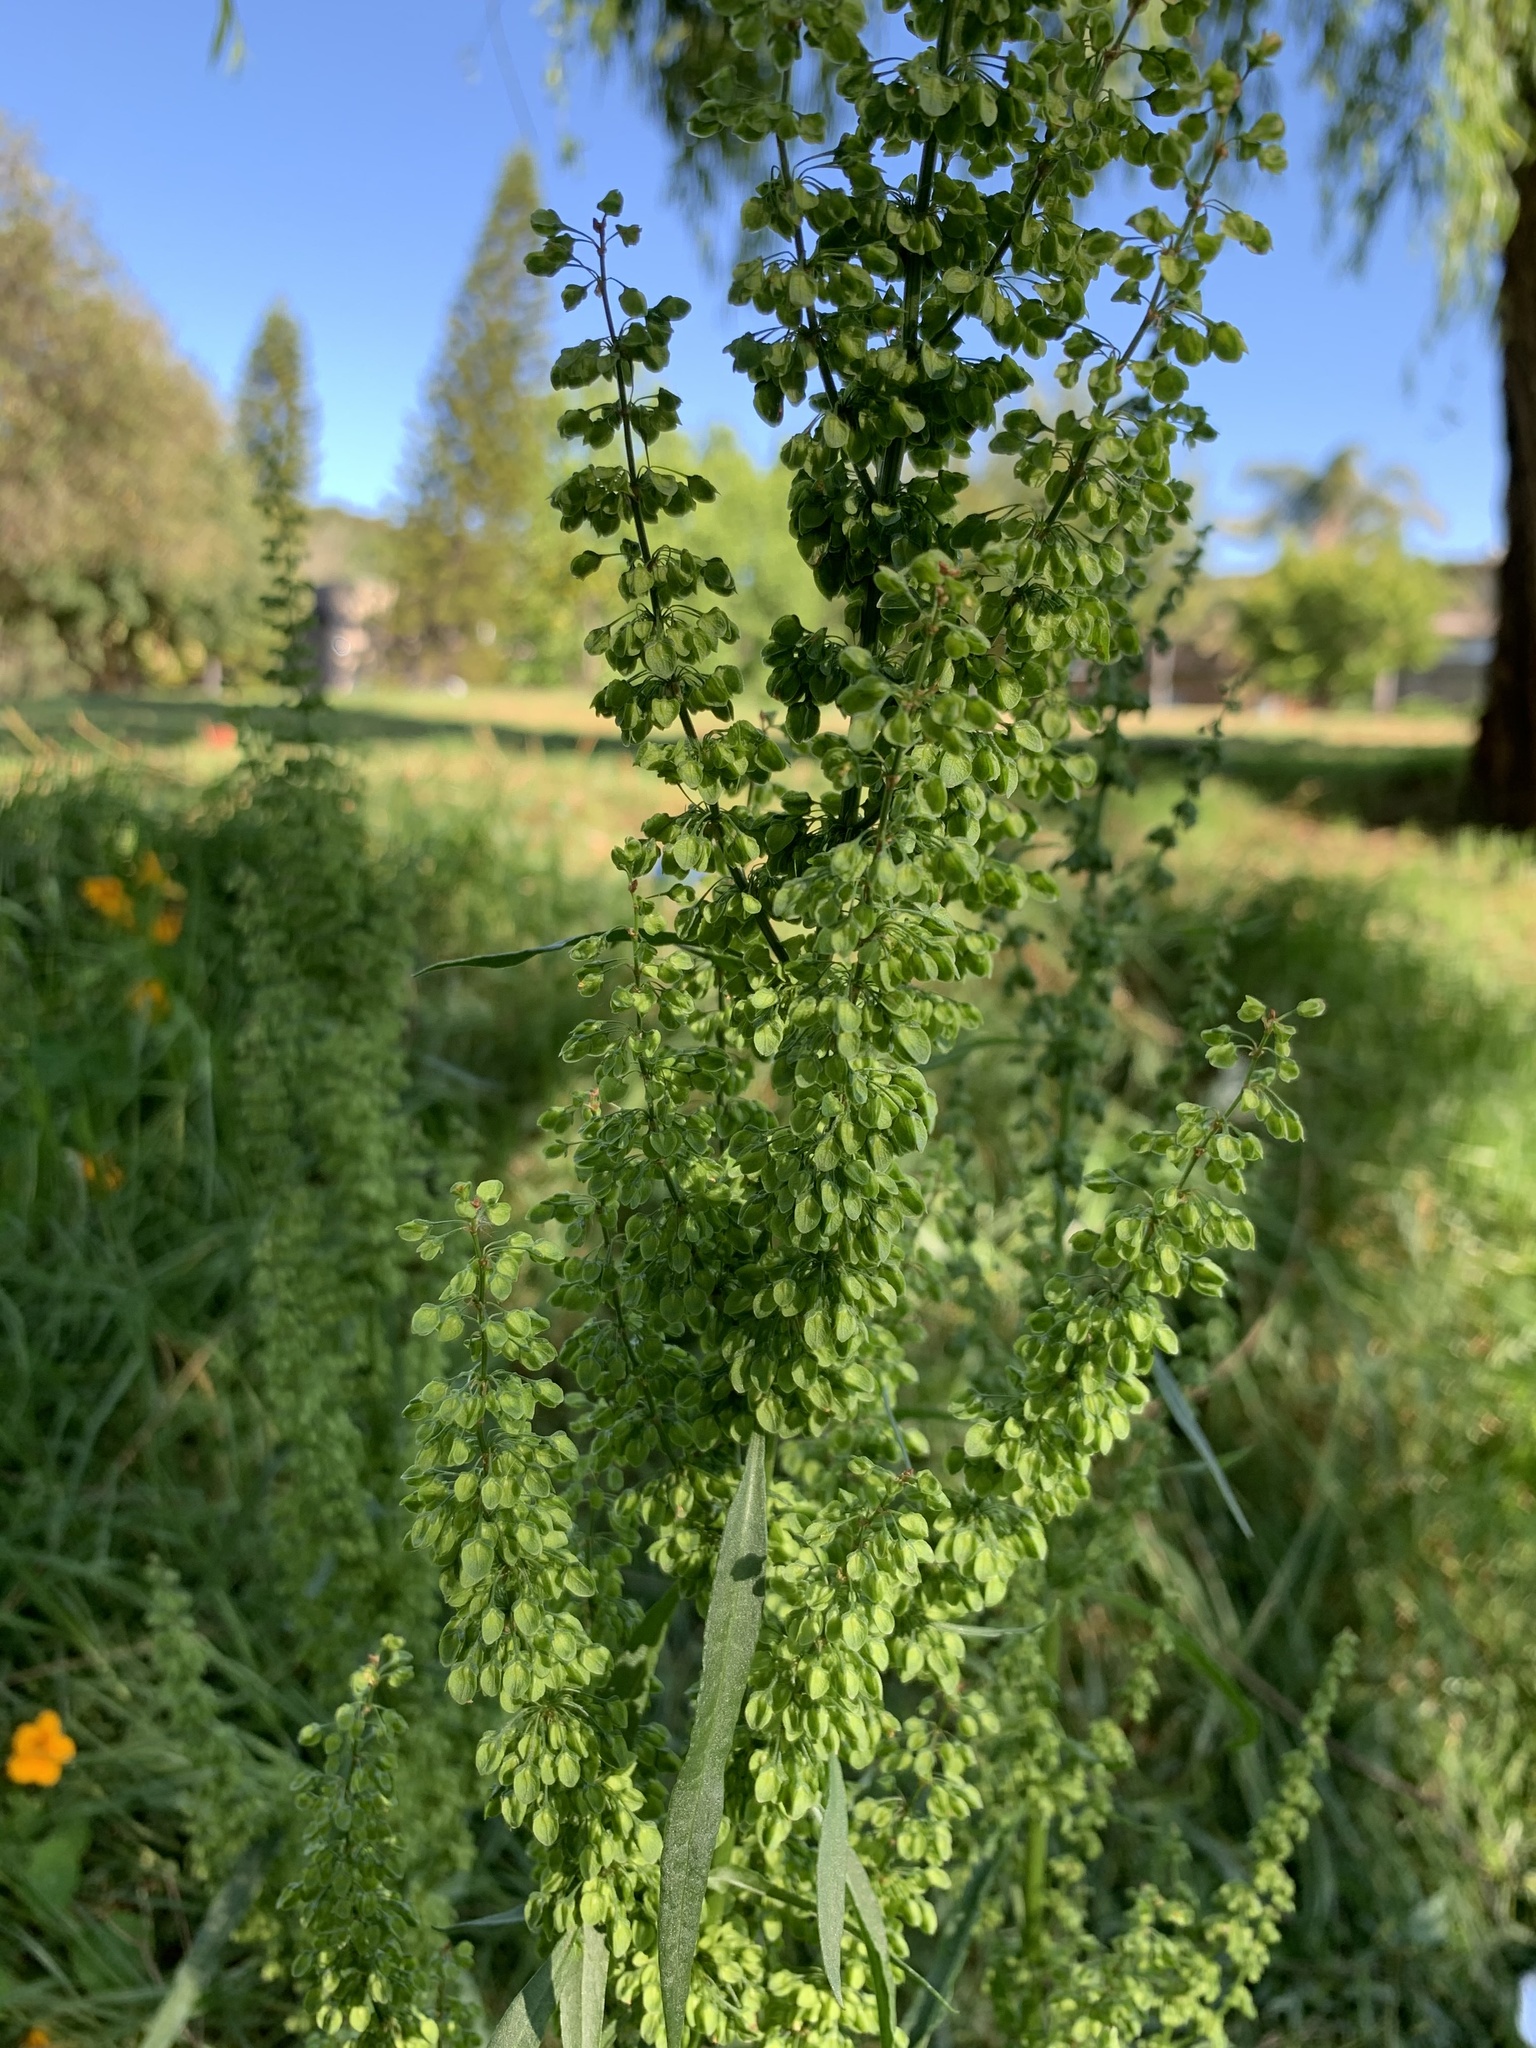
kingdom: Plantae
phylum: Tracheophyta
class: Magnoliopsida
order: Caryophyllales
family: Polygonaceae
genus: Rumex
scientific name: Rumex crispus
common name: Curled dock
